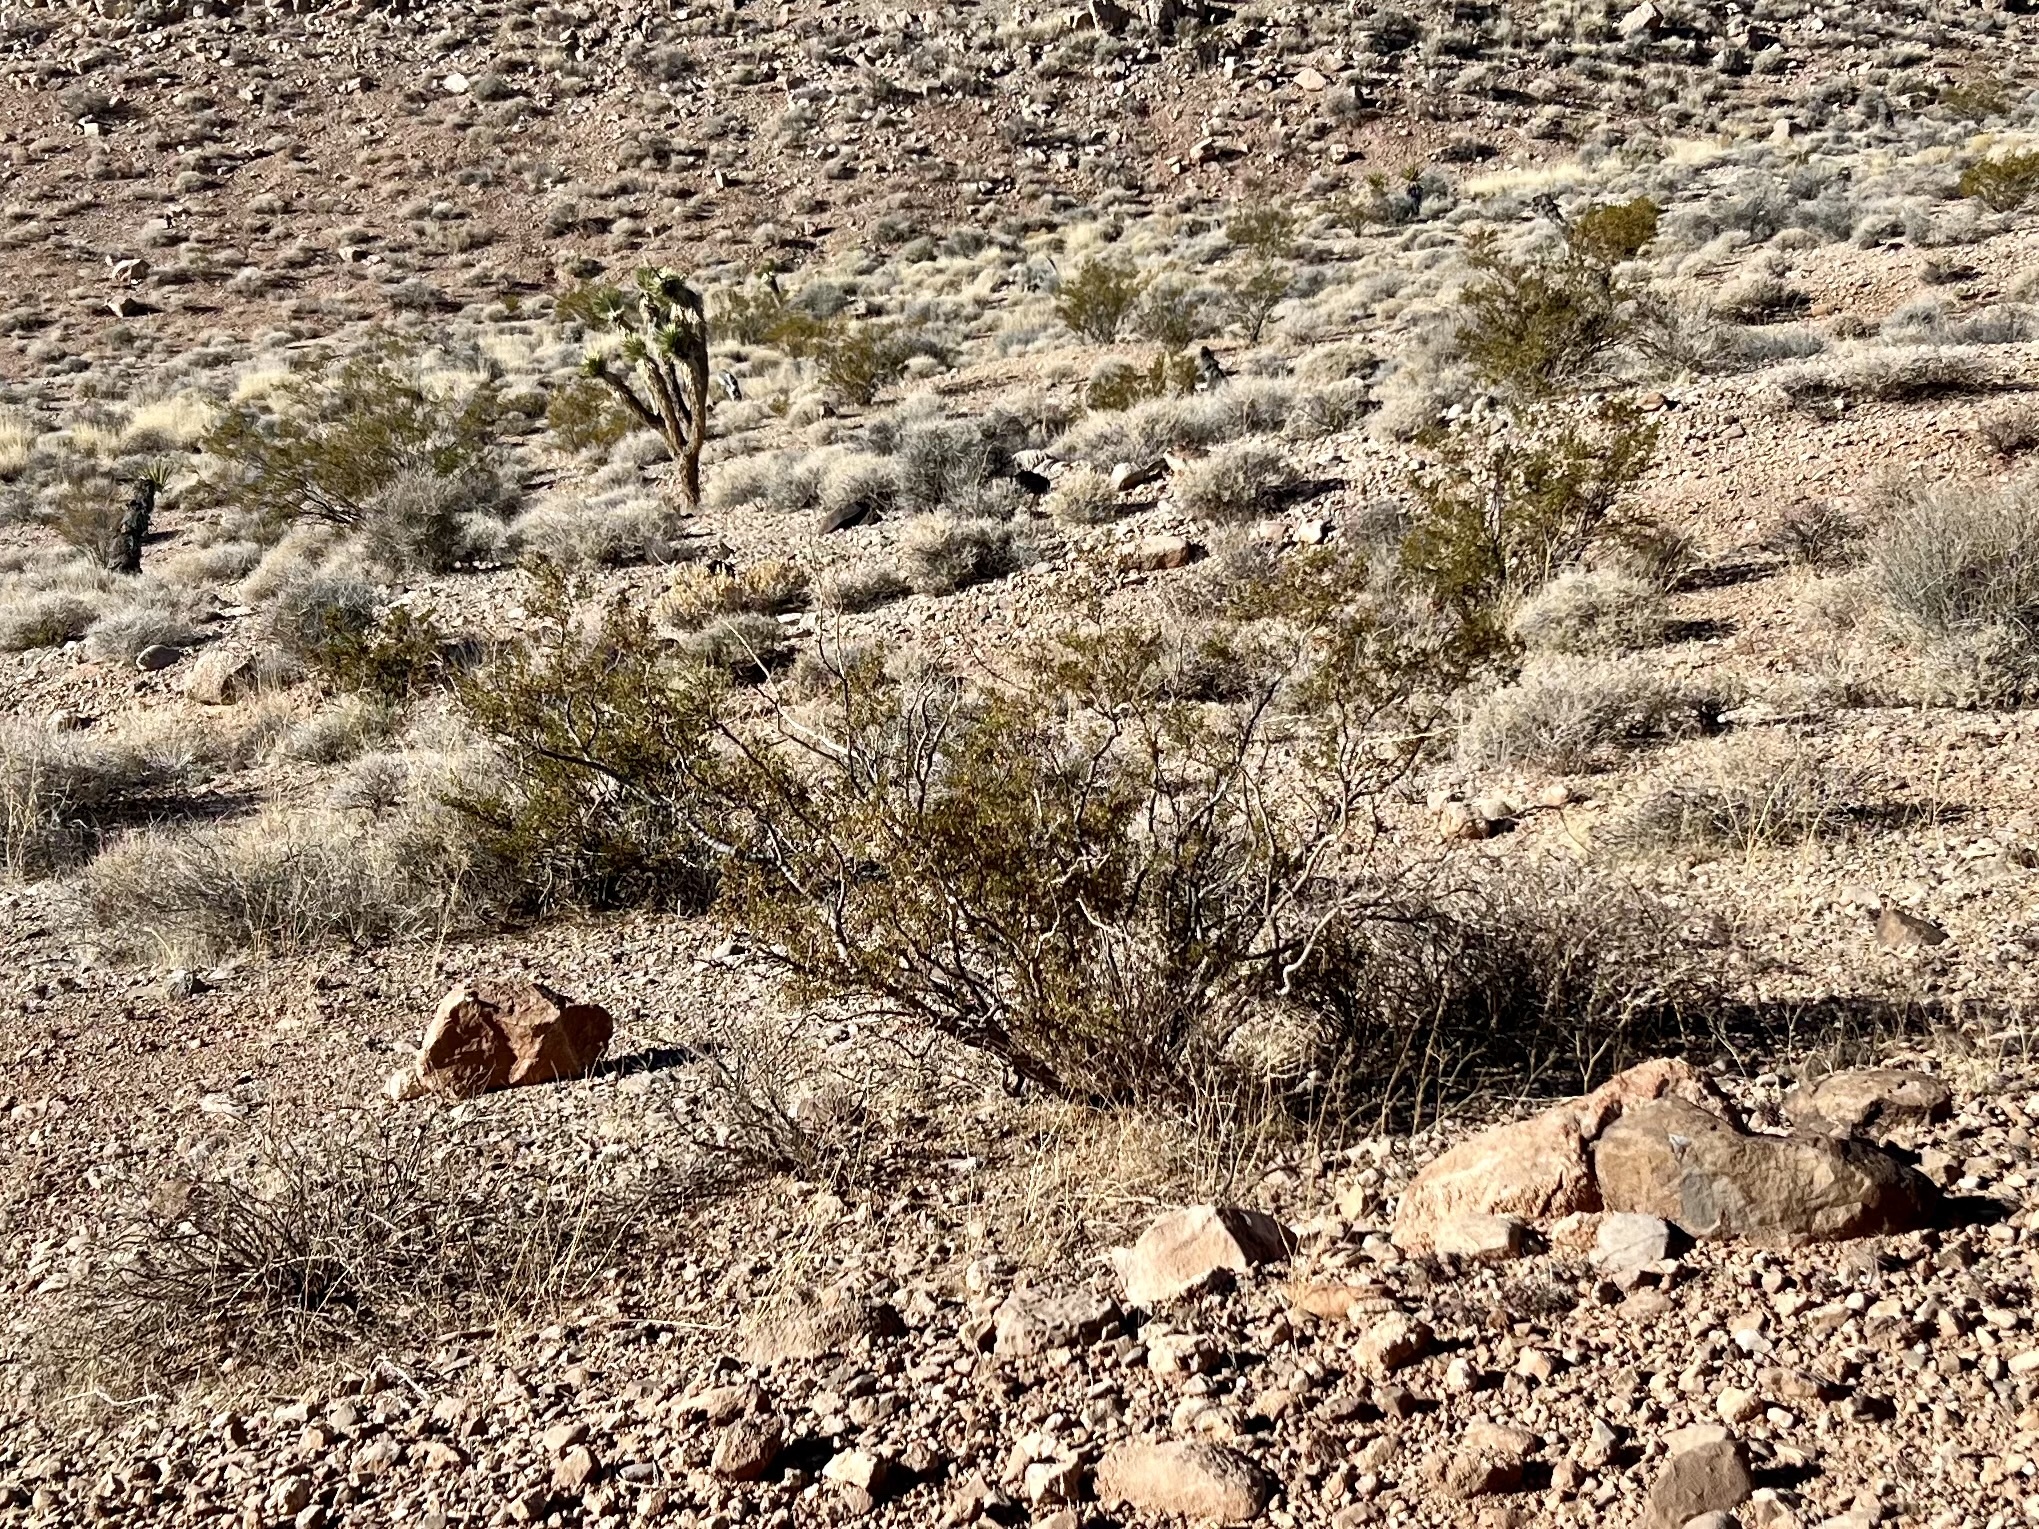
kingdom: Plantae
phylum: Tracheophyta
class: Magnoliopsida
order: Zygophyllales
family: Zygophyllaceae
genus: Larrea
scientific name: Larrea tridentata
